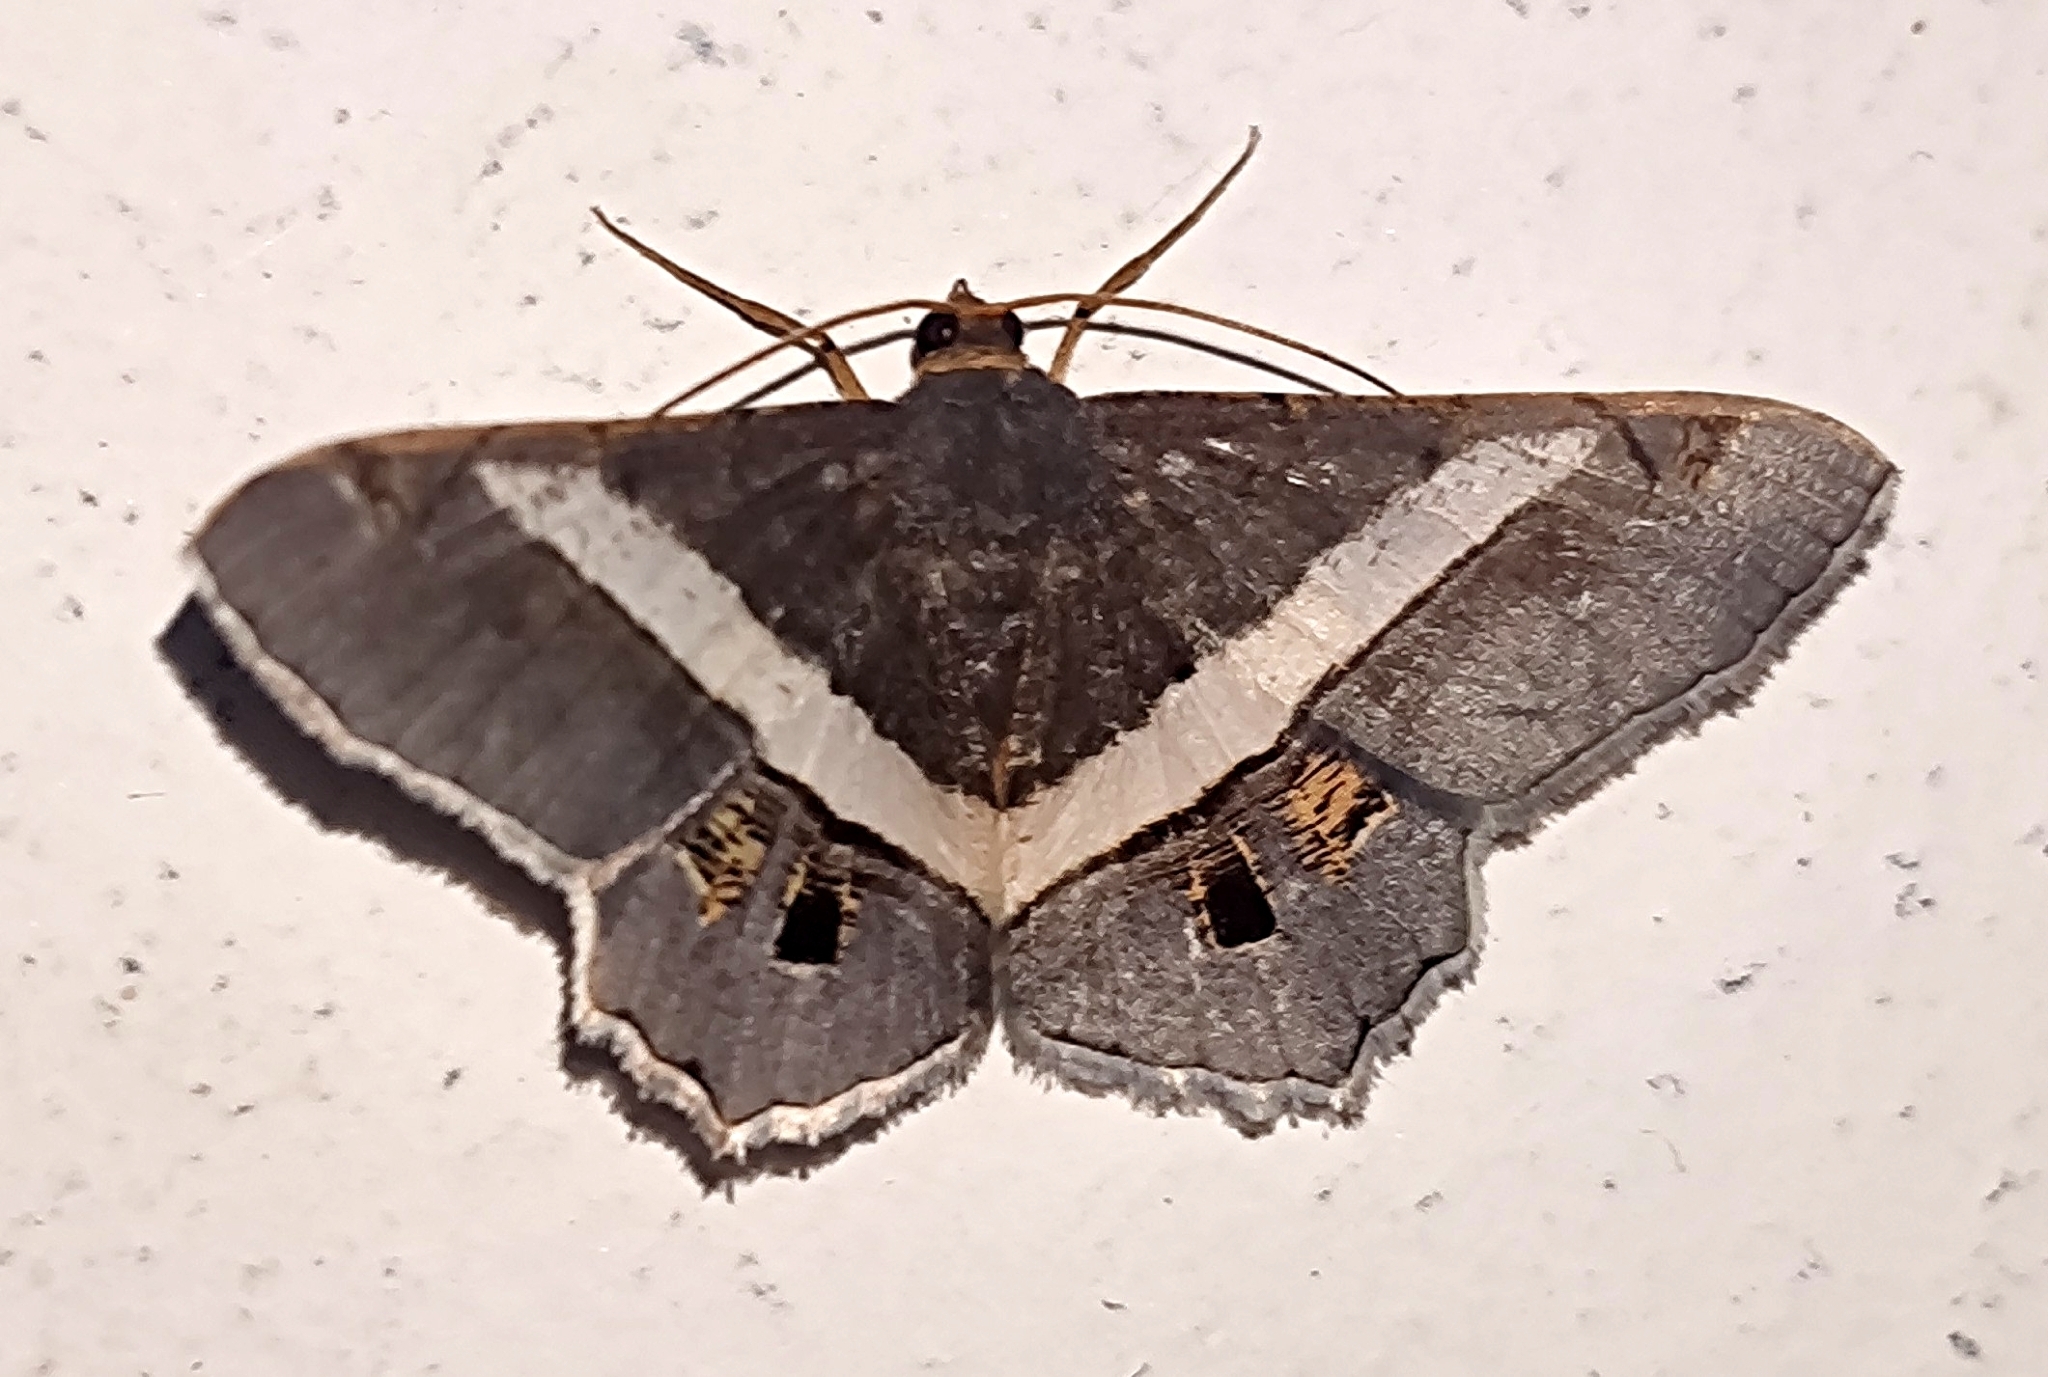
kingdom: Animalia
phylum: Arthropoda
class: Insecta
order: Lepidoptera
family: Geometridae
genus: Chiasmia
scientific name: Chiasmia eleonora
